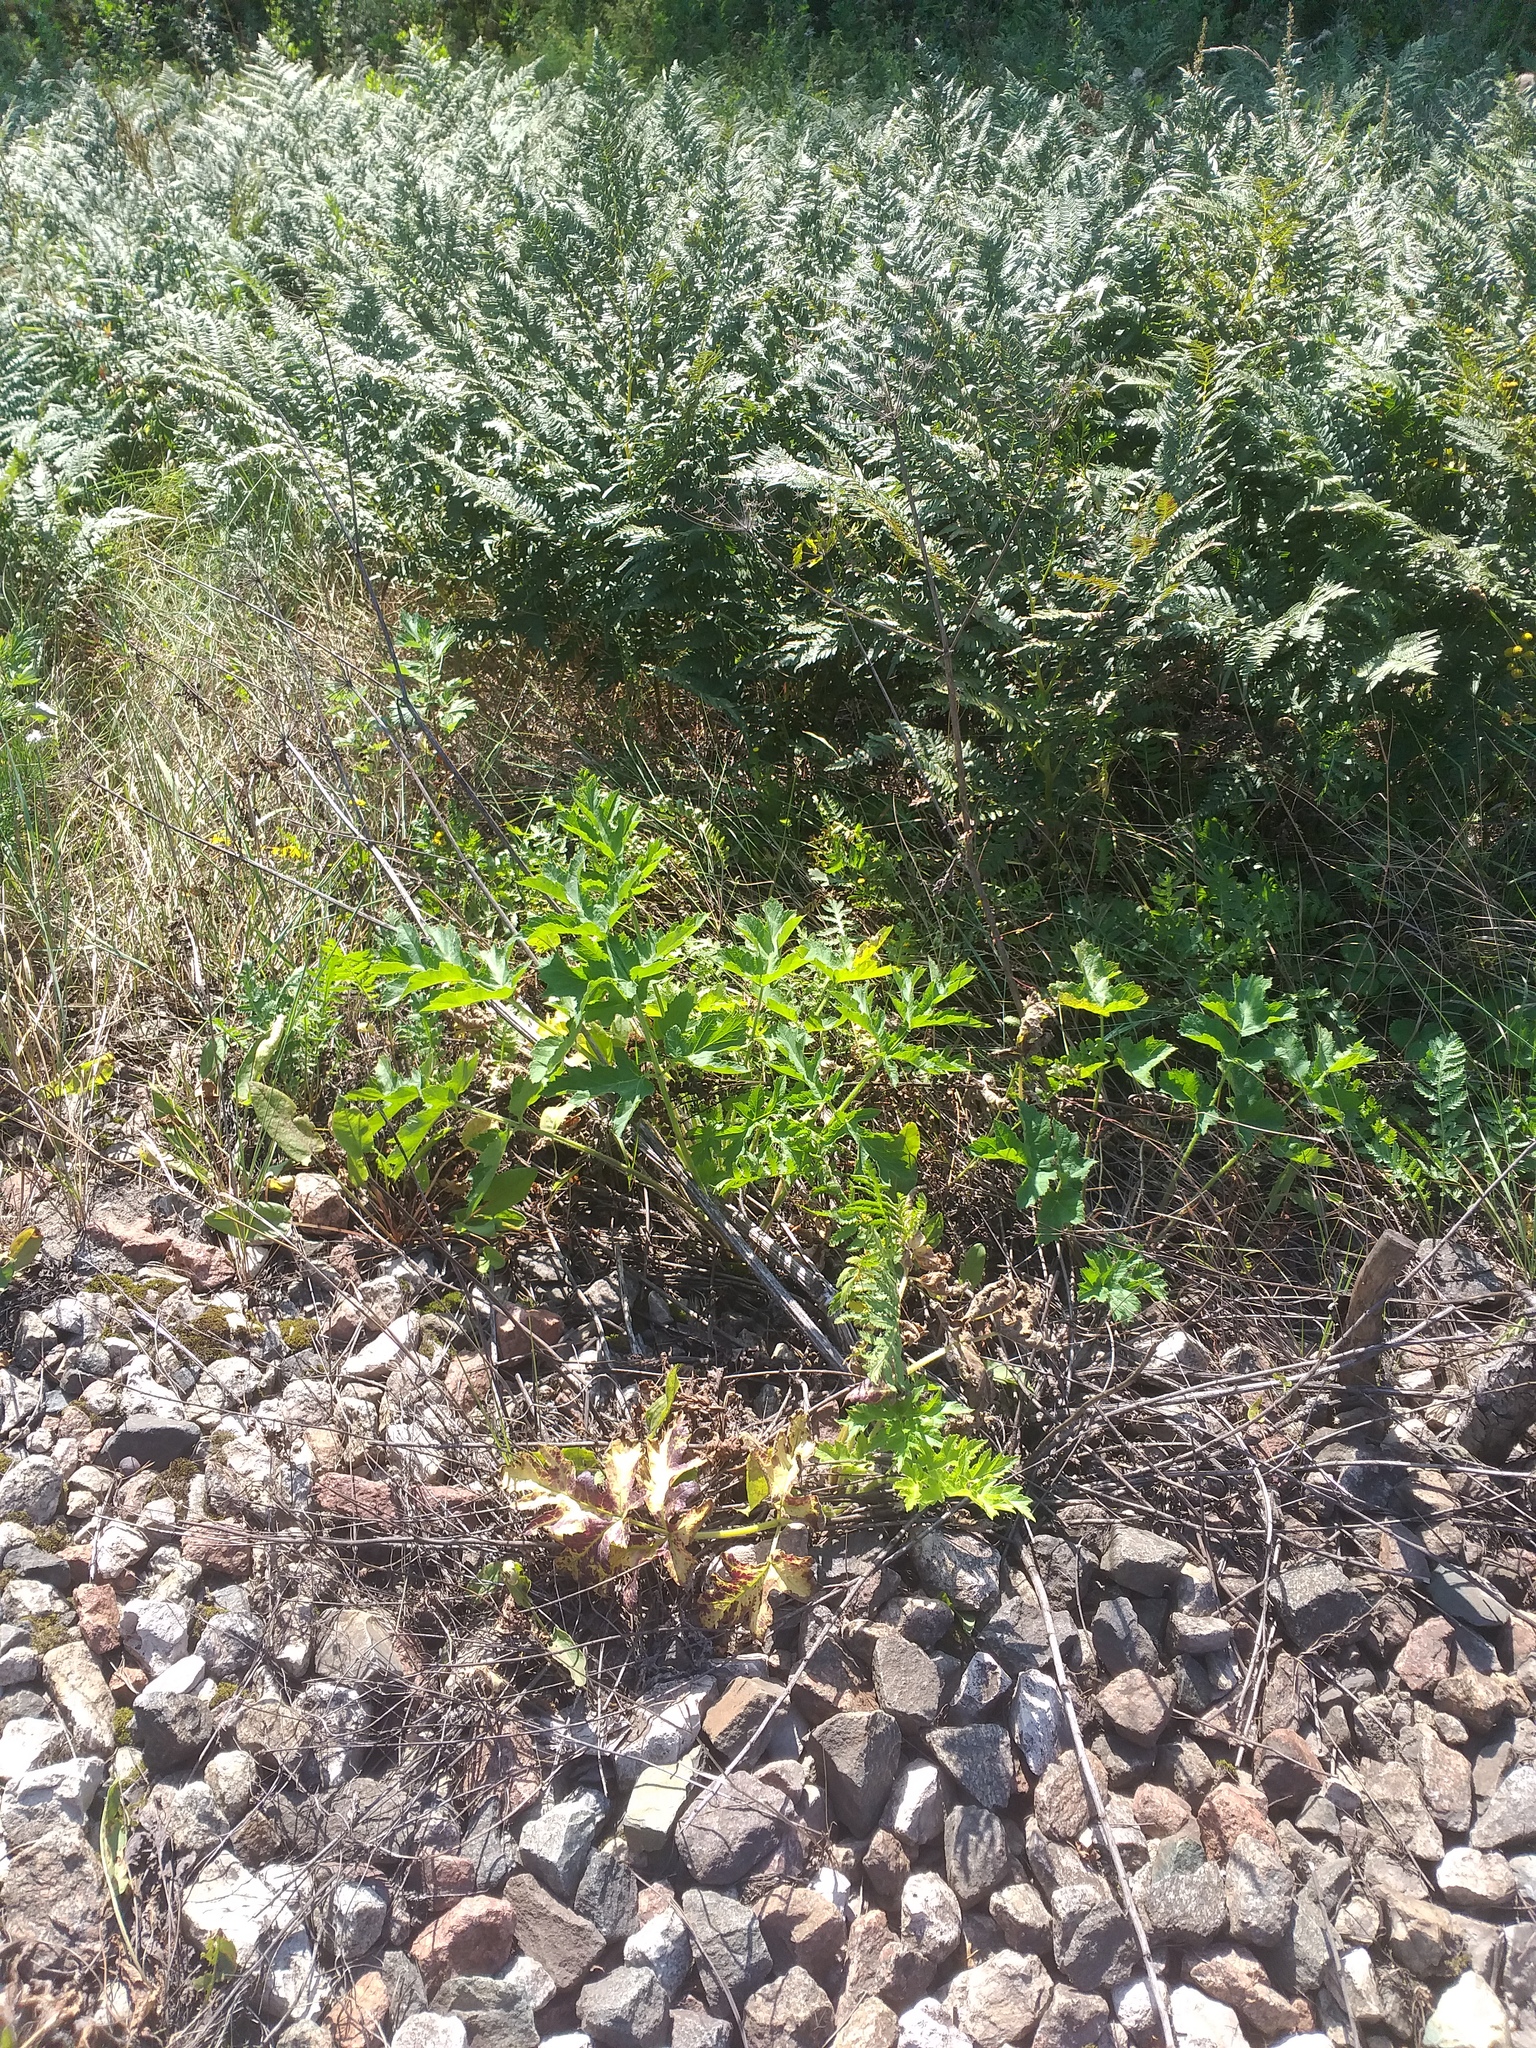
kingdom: Plantae
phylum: Tracheophyta
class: Magnoliopsida
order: Apiales
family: Apiaceae
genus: Heracleum
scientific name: Heracleum sphondylium
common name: Hogweed
